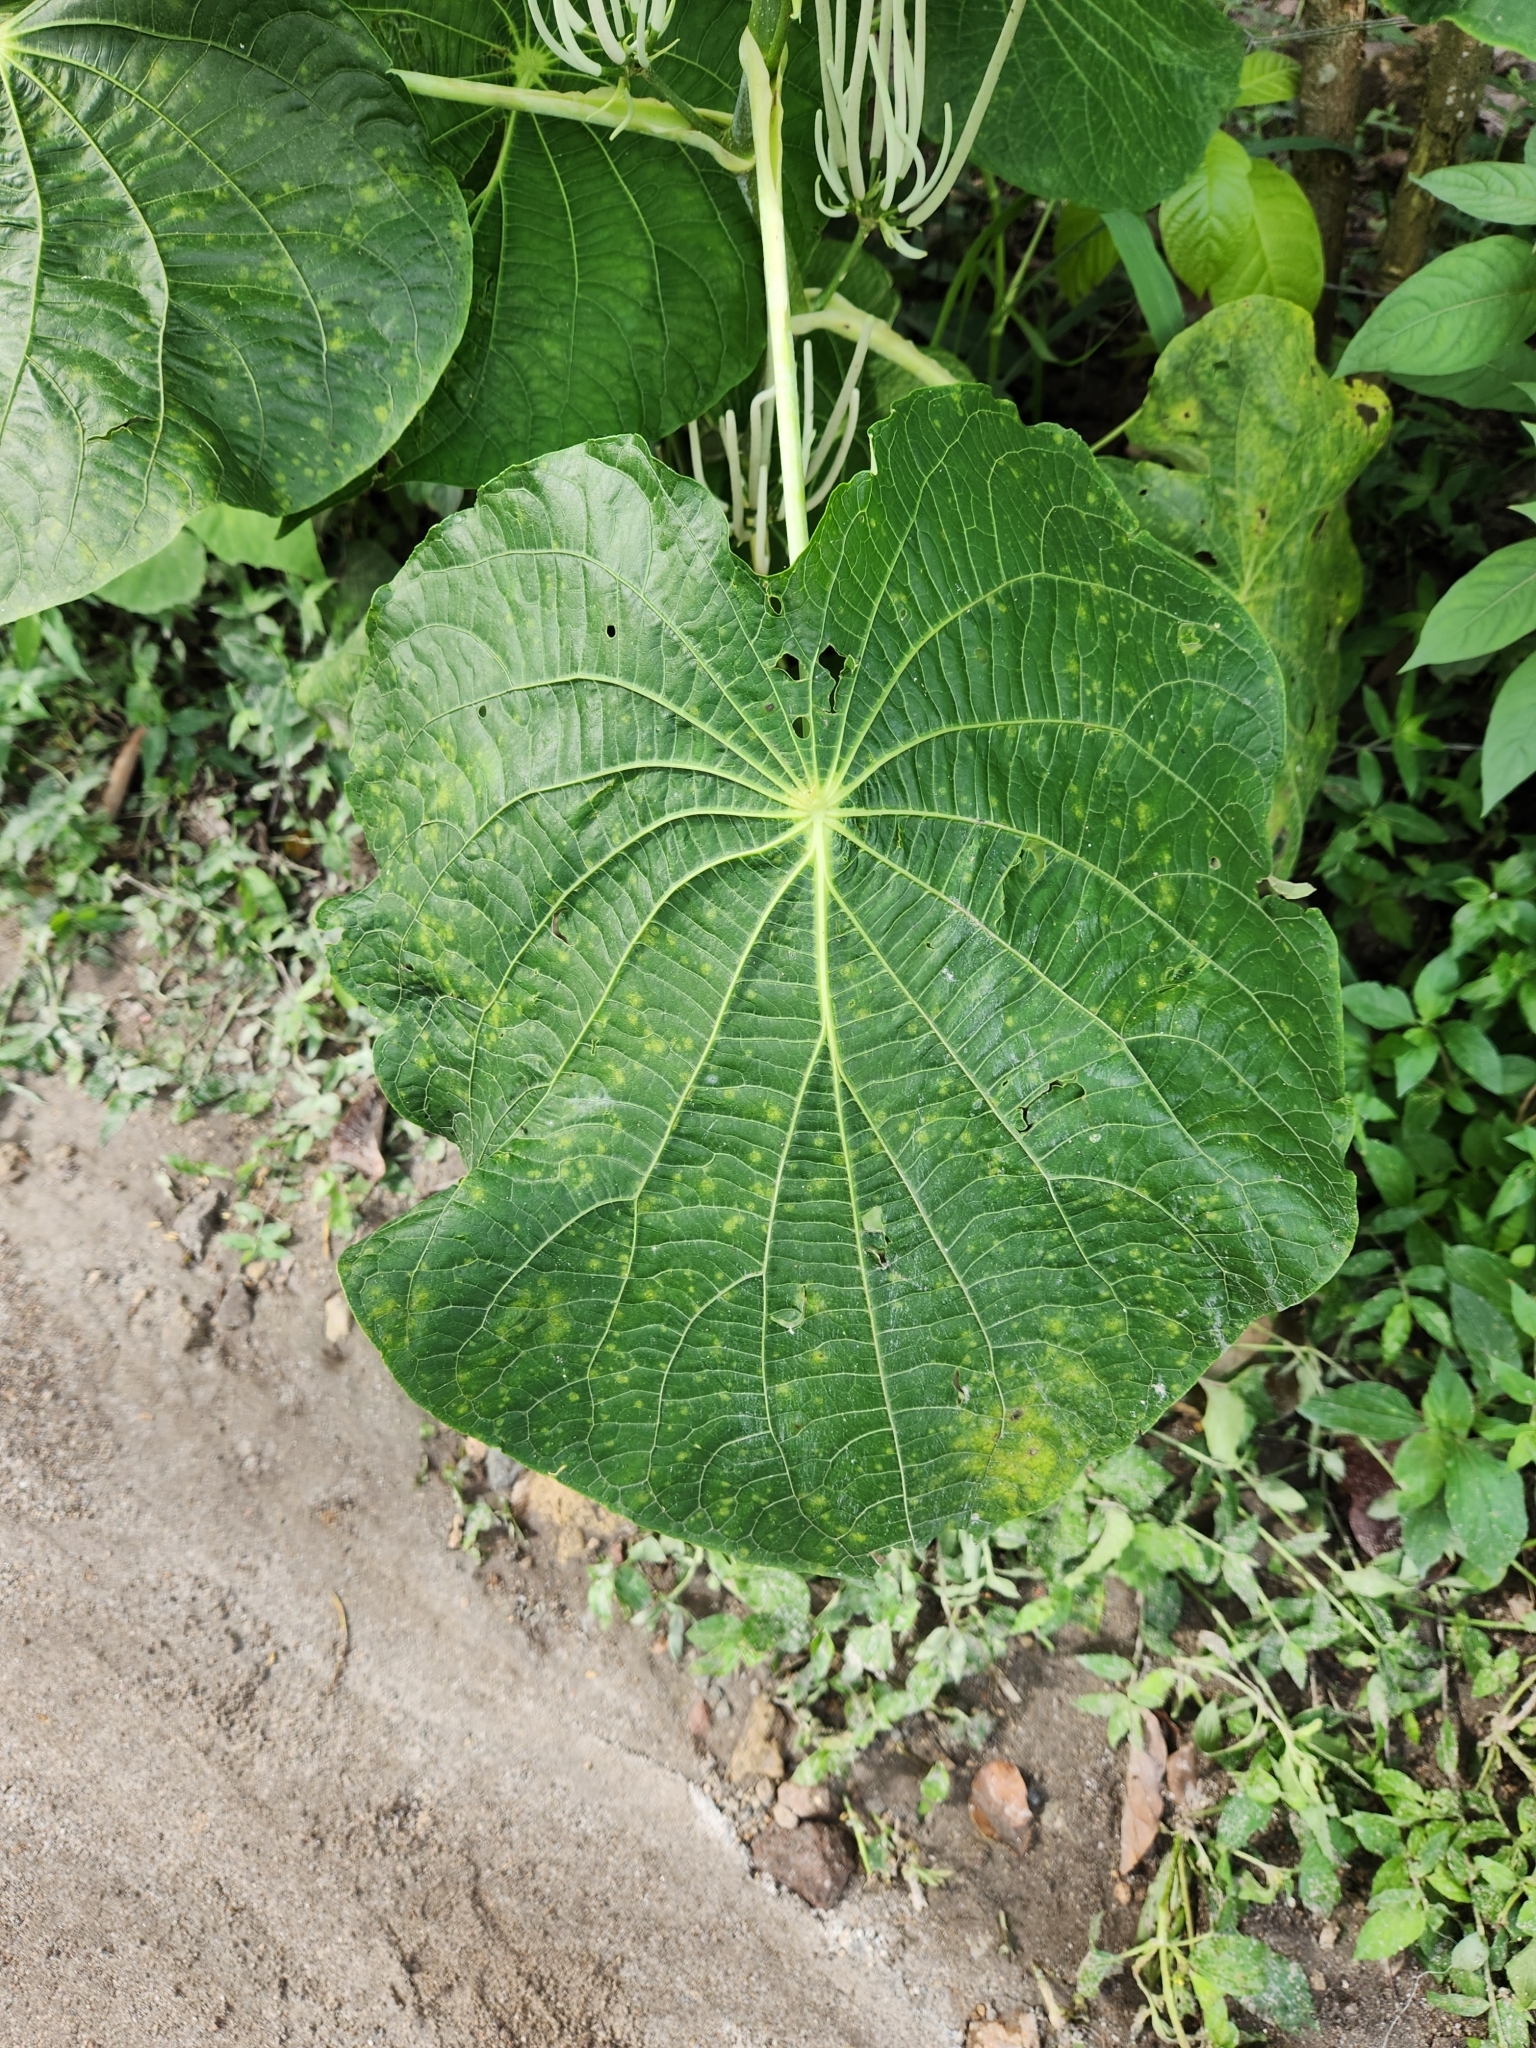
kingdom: Plantae
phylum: Tracheophyta
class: Magnoliopsida
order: Piperales
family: Piperaceae
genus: Piper
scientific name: Piper peltatum
